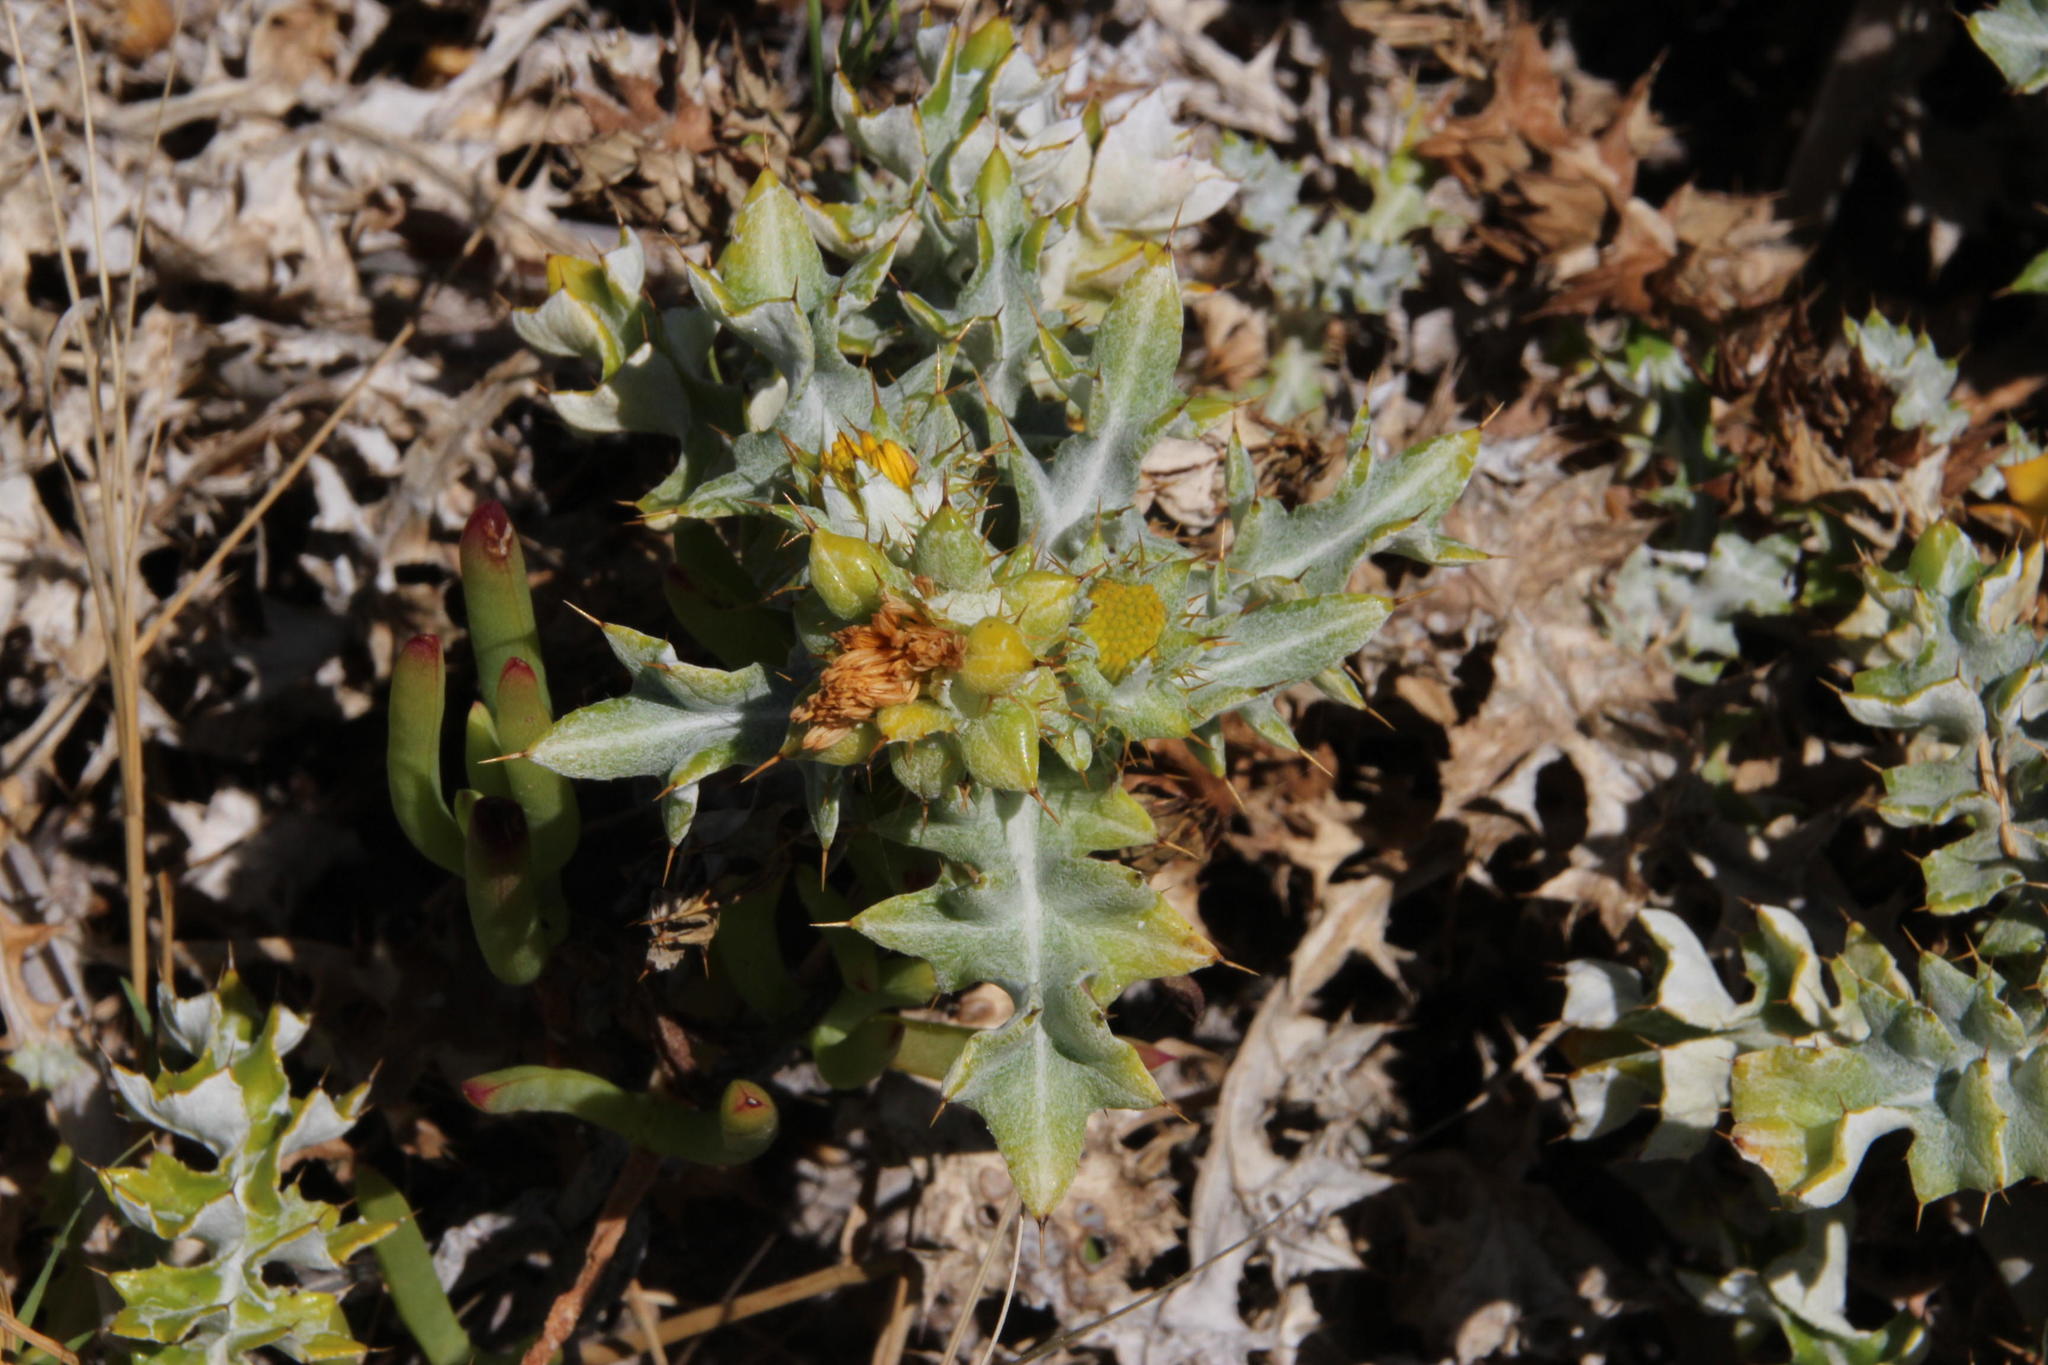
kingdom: Plantae
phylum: Tracheophyta
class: Magnoliopsida
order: Asterales
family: Asteraceae
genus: Berkheya
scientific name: Berkheya rigida
